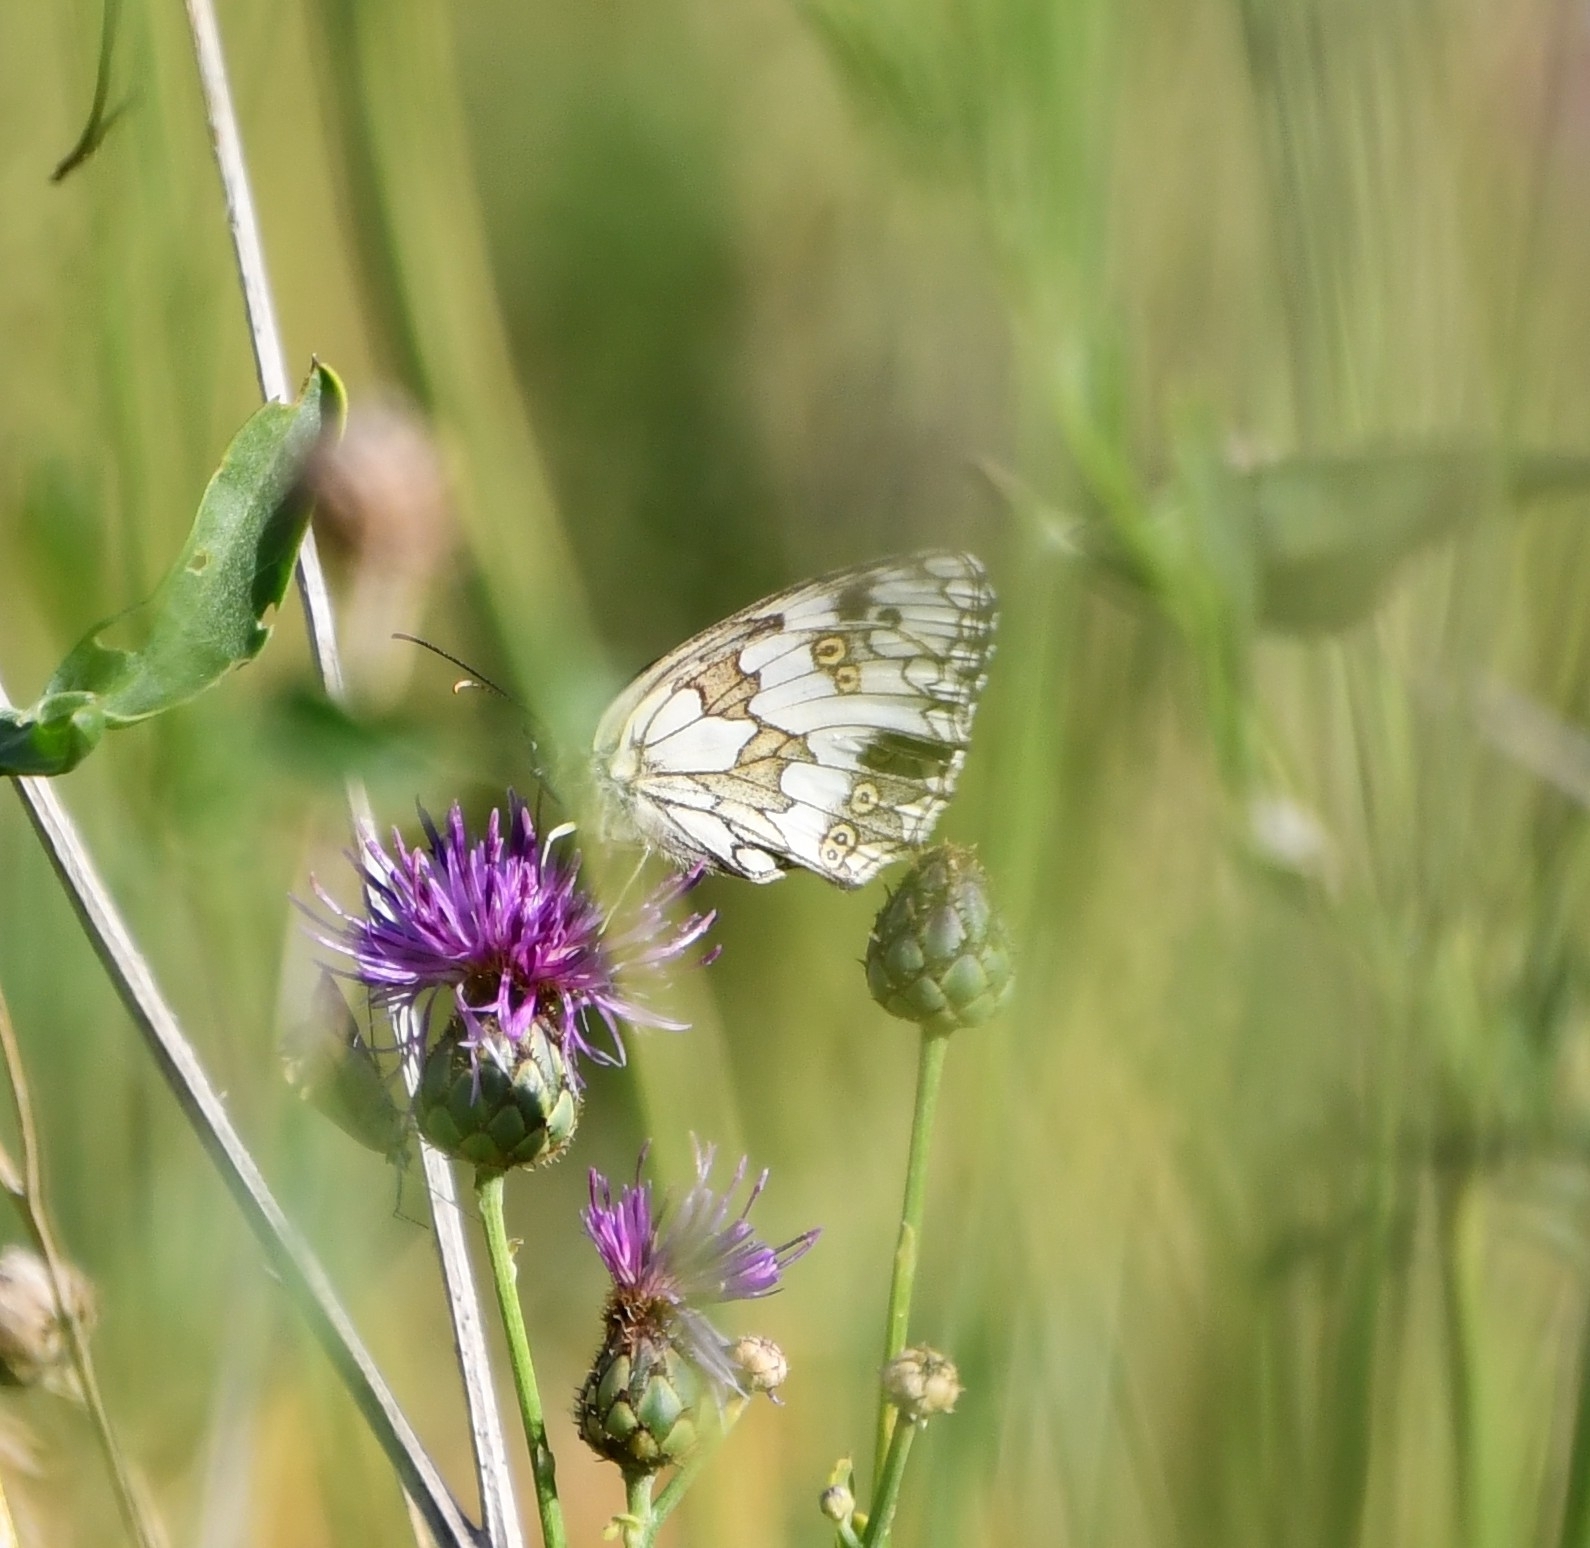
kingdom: Animalia
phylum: Arthropoda
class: Insecta
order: Lepidoptera
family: Nymphalidae
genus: Melanargia
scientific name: Melanargia galathea
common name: Marbled white
